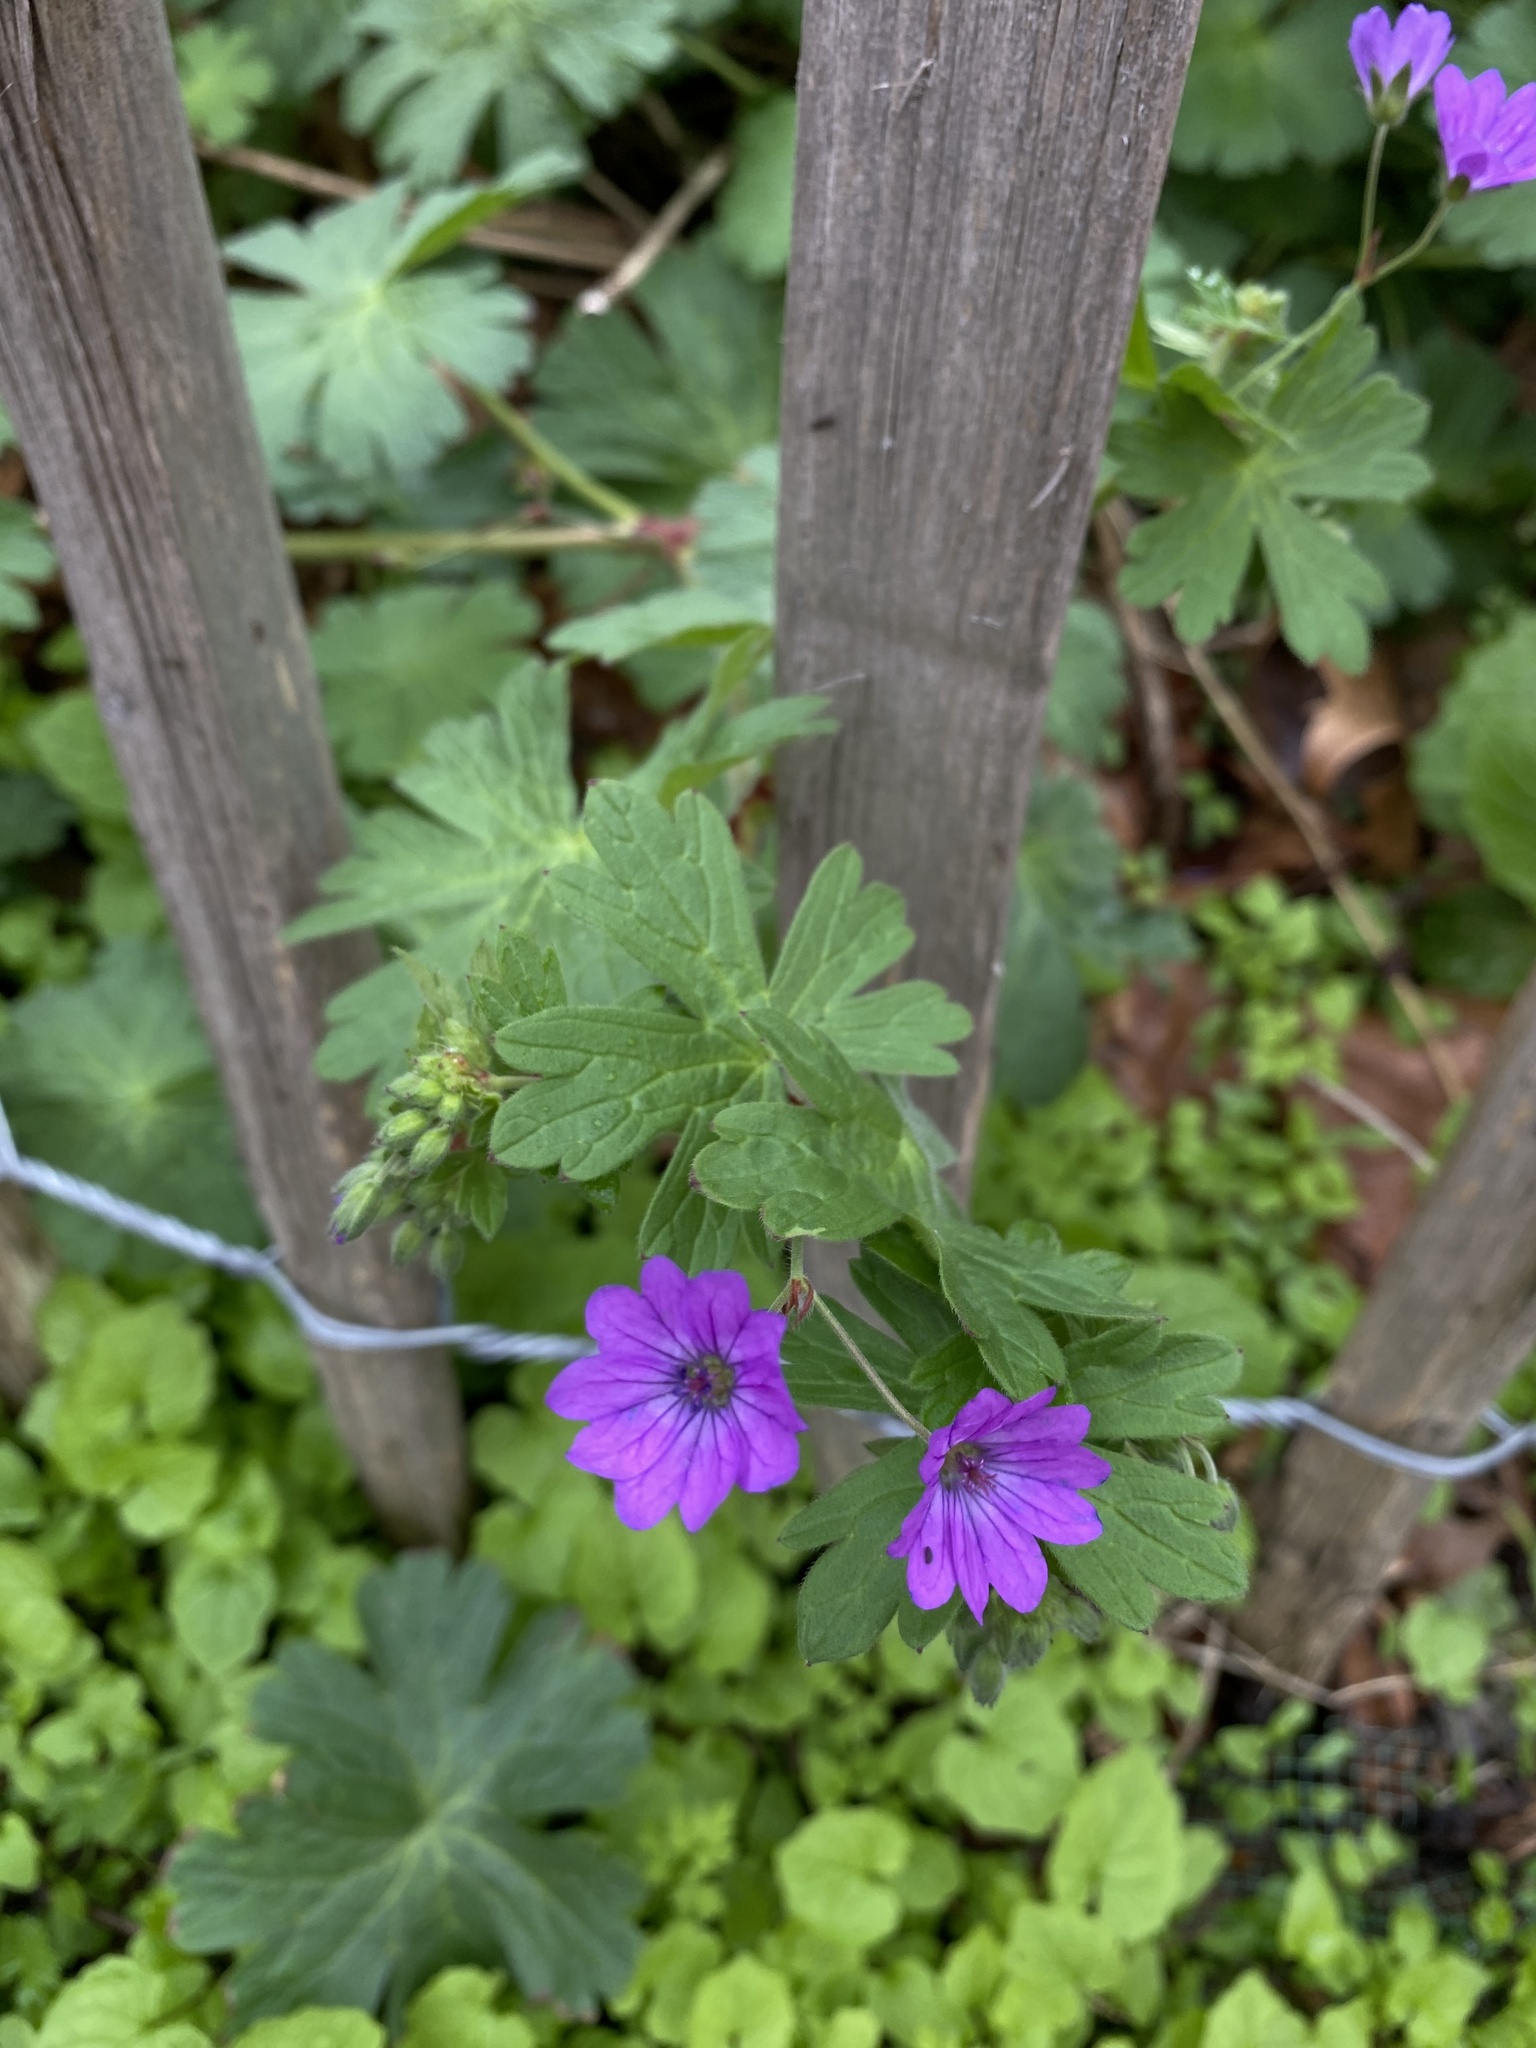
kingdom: Plantae
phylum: Tracheophyta
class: Magnoliopsida
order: Geraniales
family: Geraniaceae
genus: Geranium
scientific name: Geranium pyrenaicum
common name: Hedgerow crane's-bill
